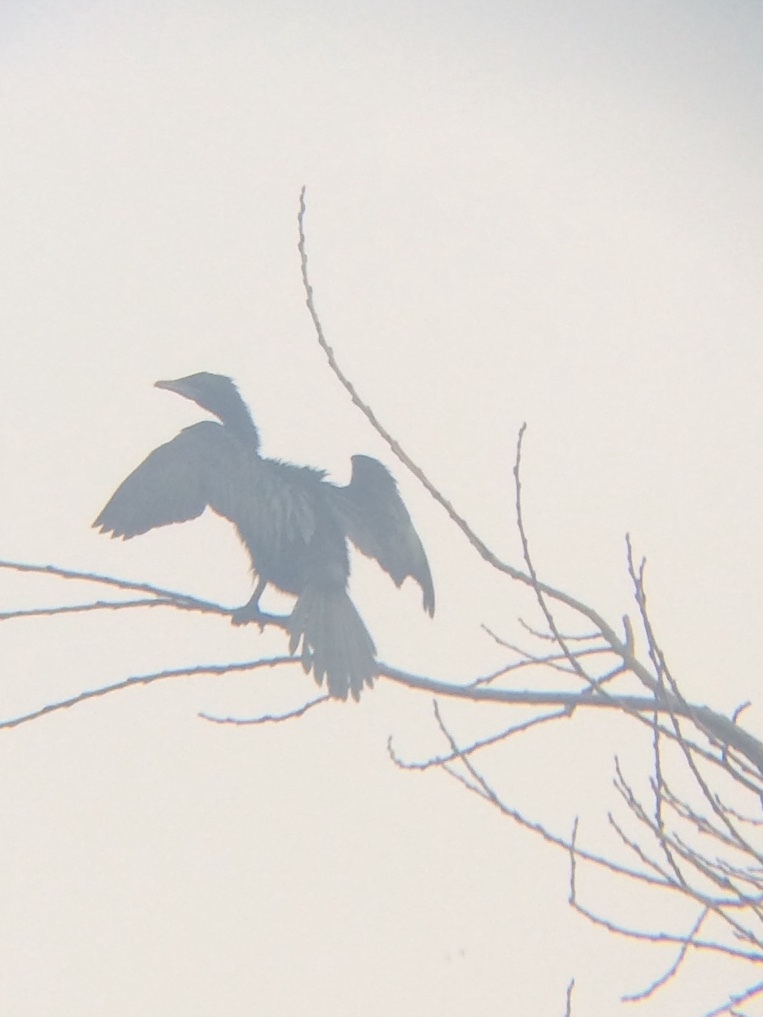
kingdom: Animalia
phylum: Chordata
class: Aves
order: Suliformes
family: Phalacrocoracidae
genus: Microcarbo
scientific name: Microcarbo niger
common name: Little cormorant
